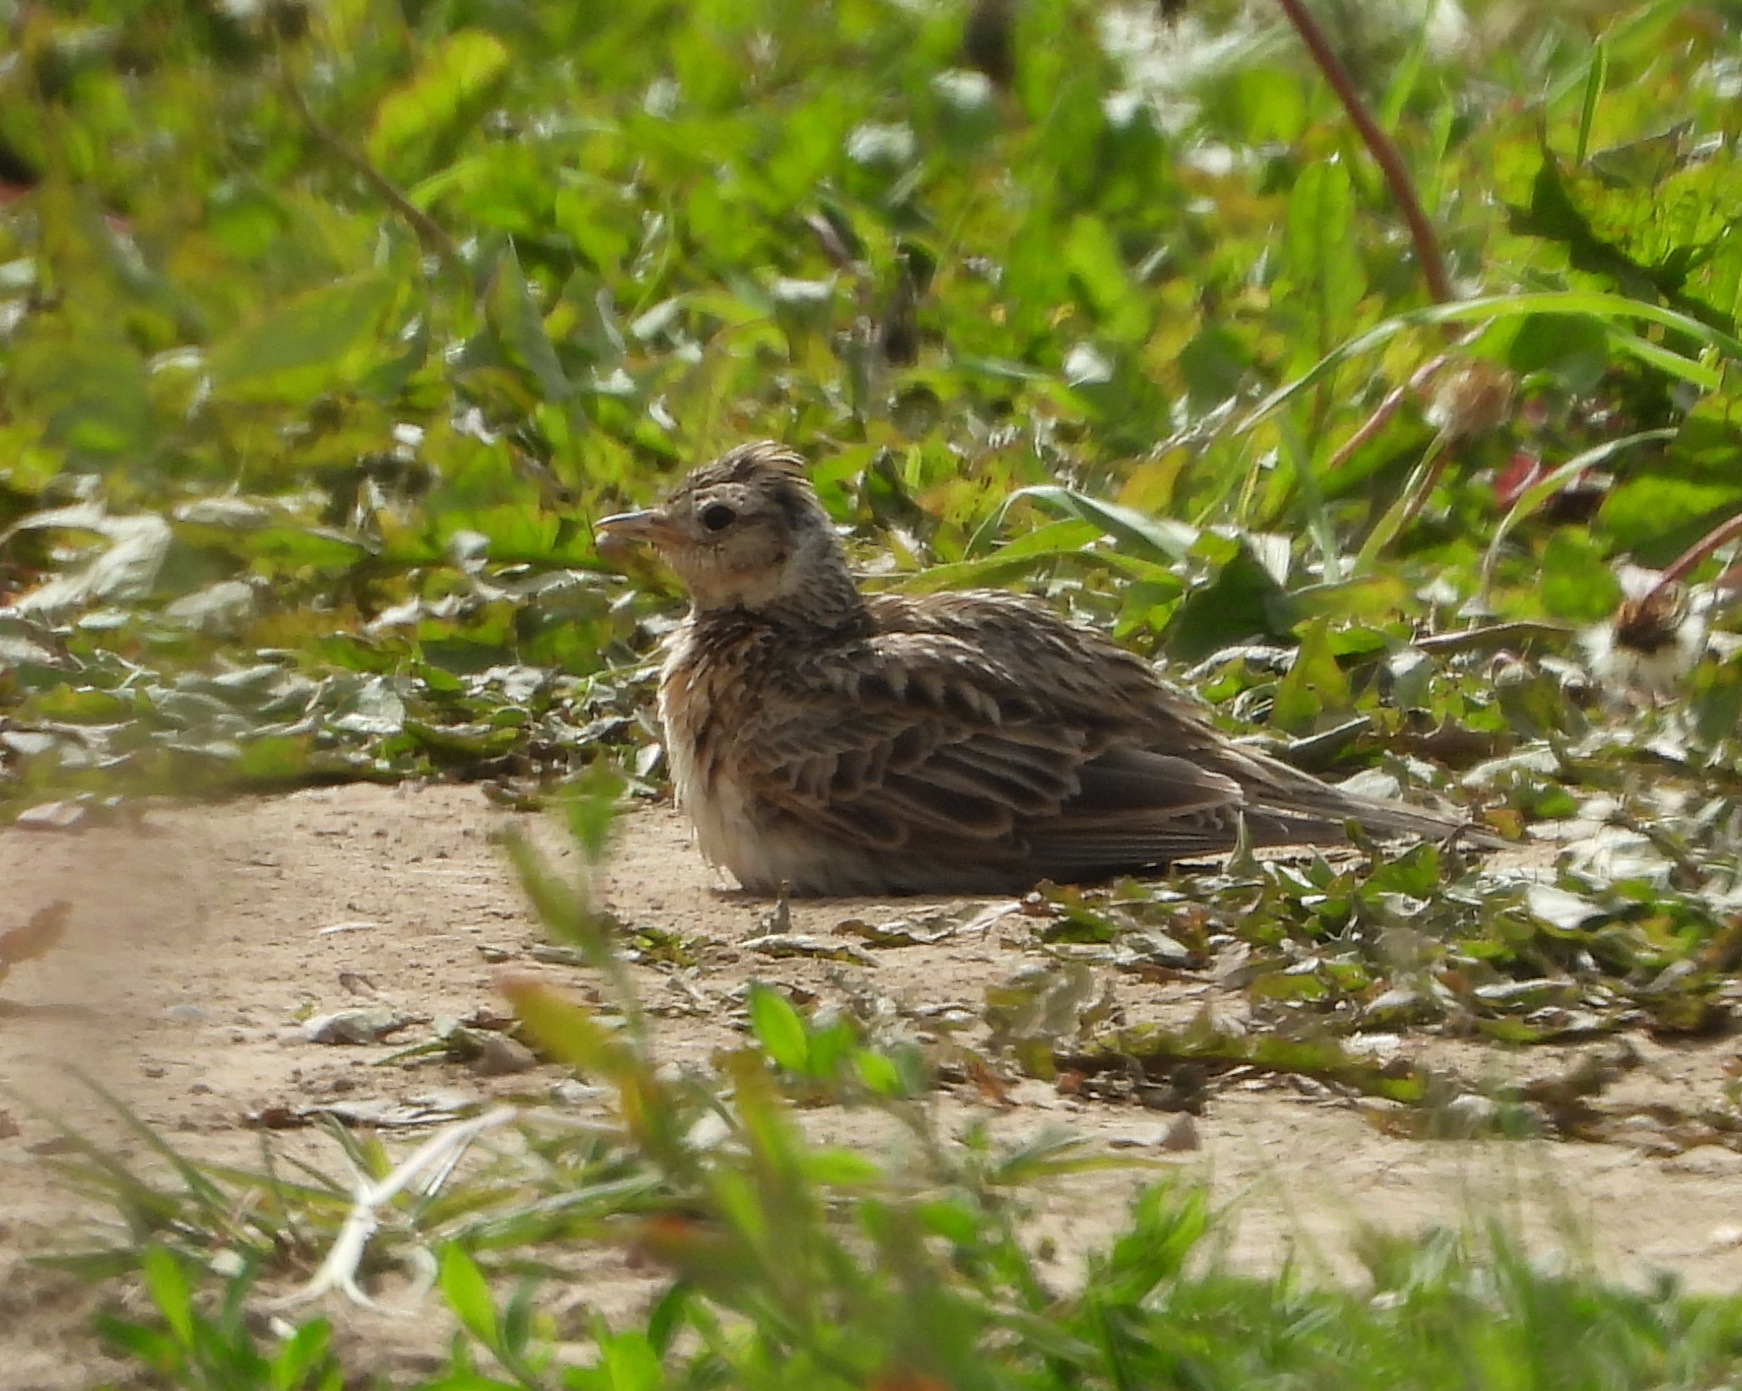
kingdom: Animalia
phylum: Chordata
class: Aves
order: Passeriformes
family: Alaudidae
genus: Alauda
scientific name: Alauda arvensis
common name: Eurasian skylark
